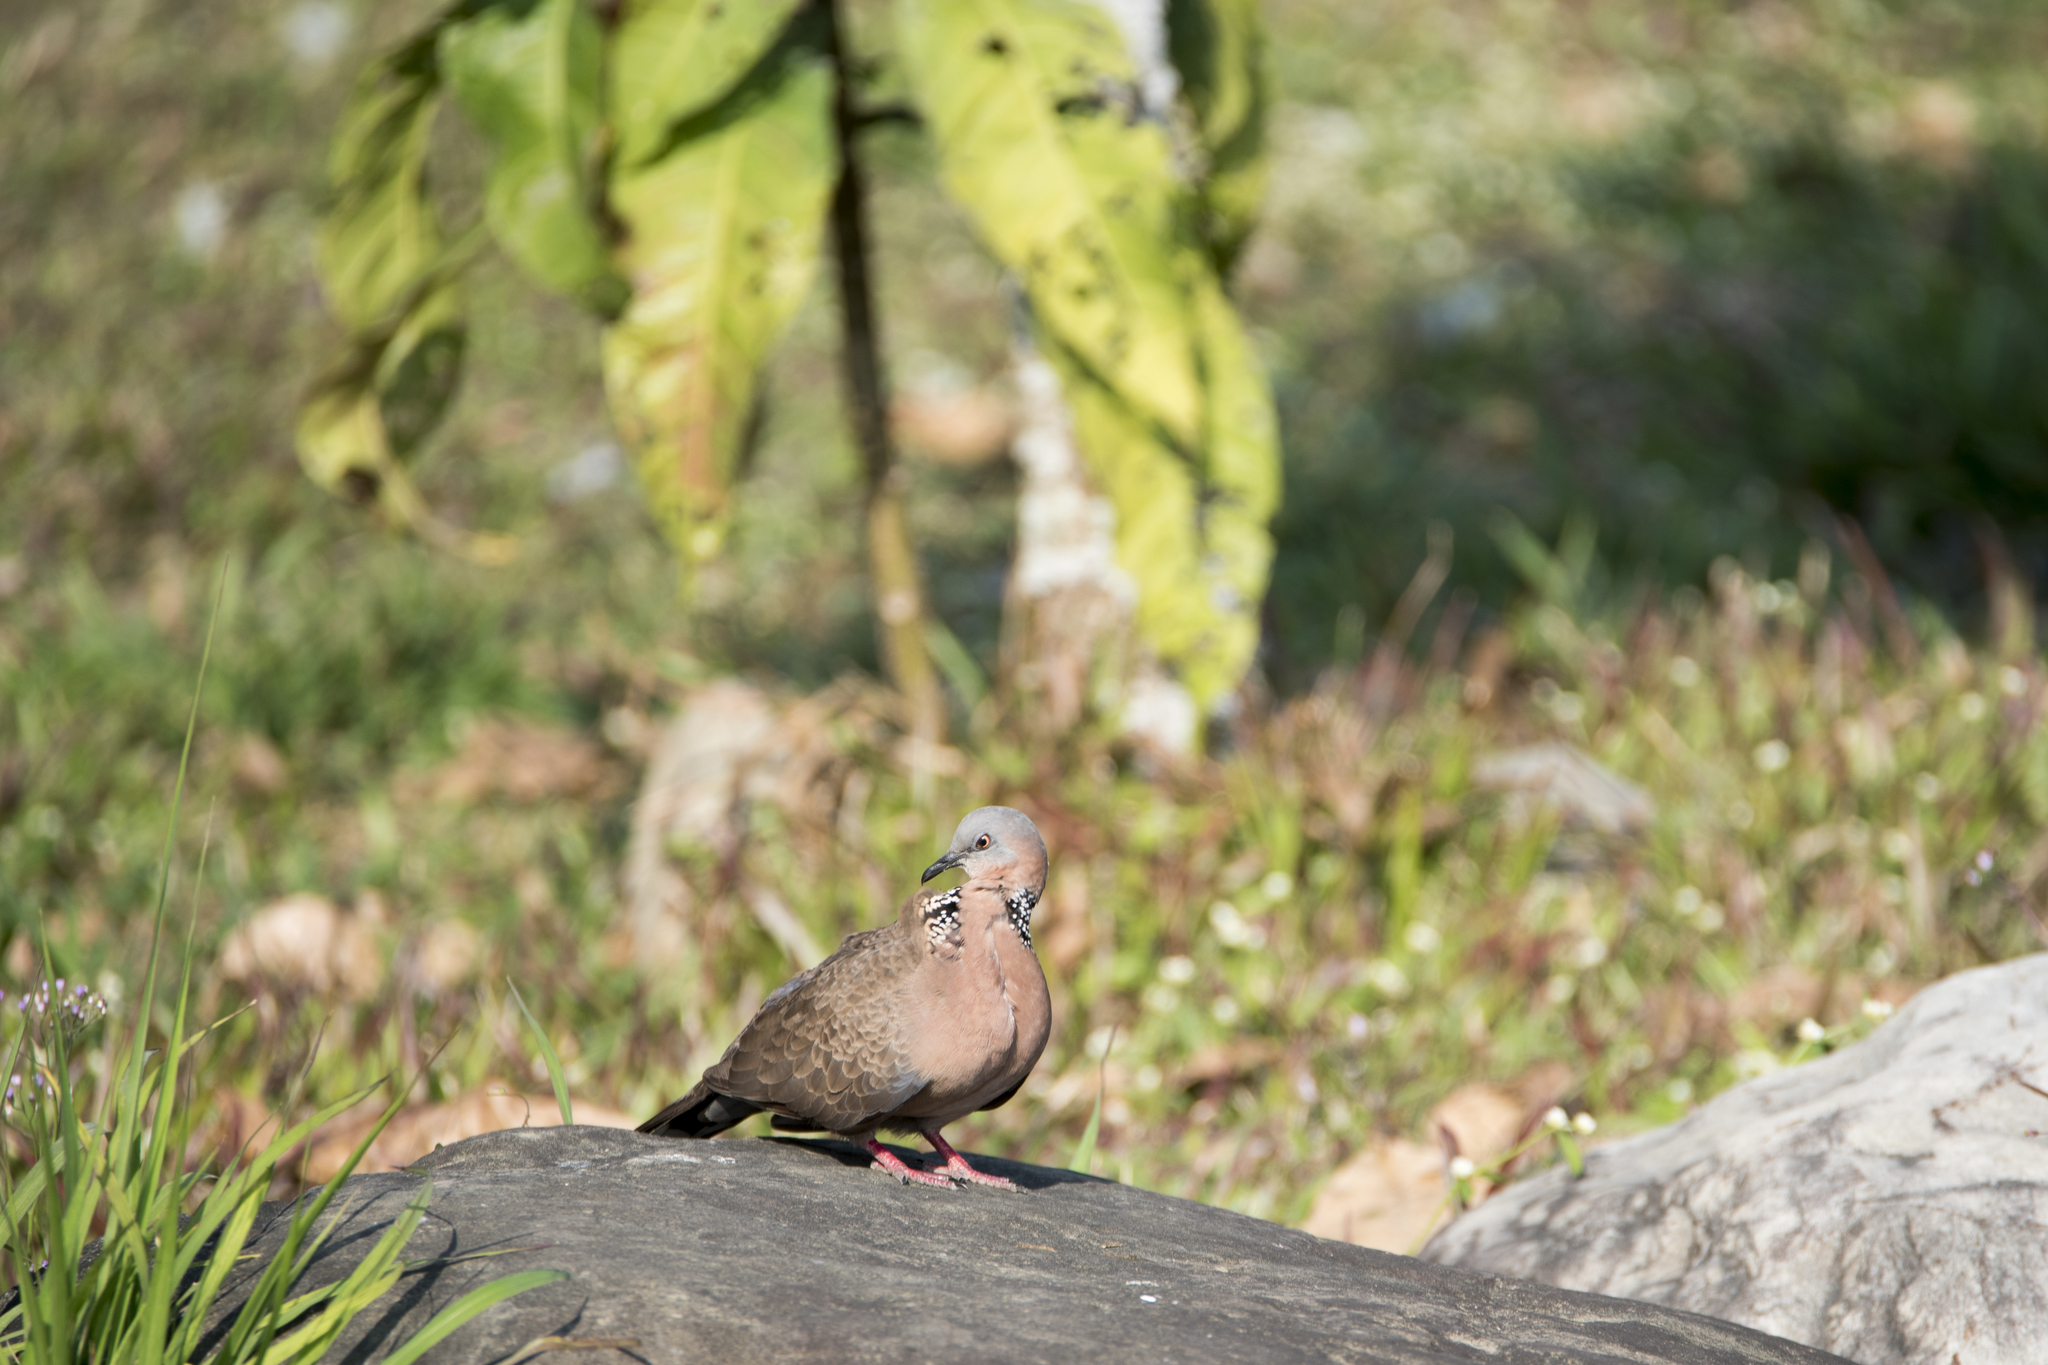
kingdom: Animalia
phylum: Chordata
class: Aves
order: Columbiformes
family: Columbidae
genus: Spilopelia
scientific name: Spilopelia chinensis
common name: Spotted dove
